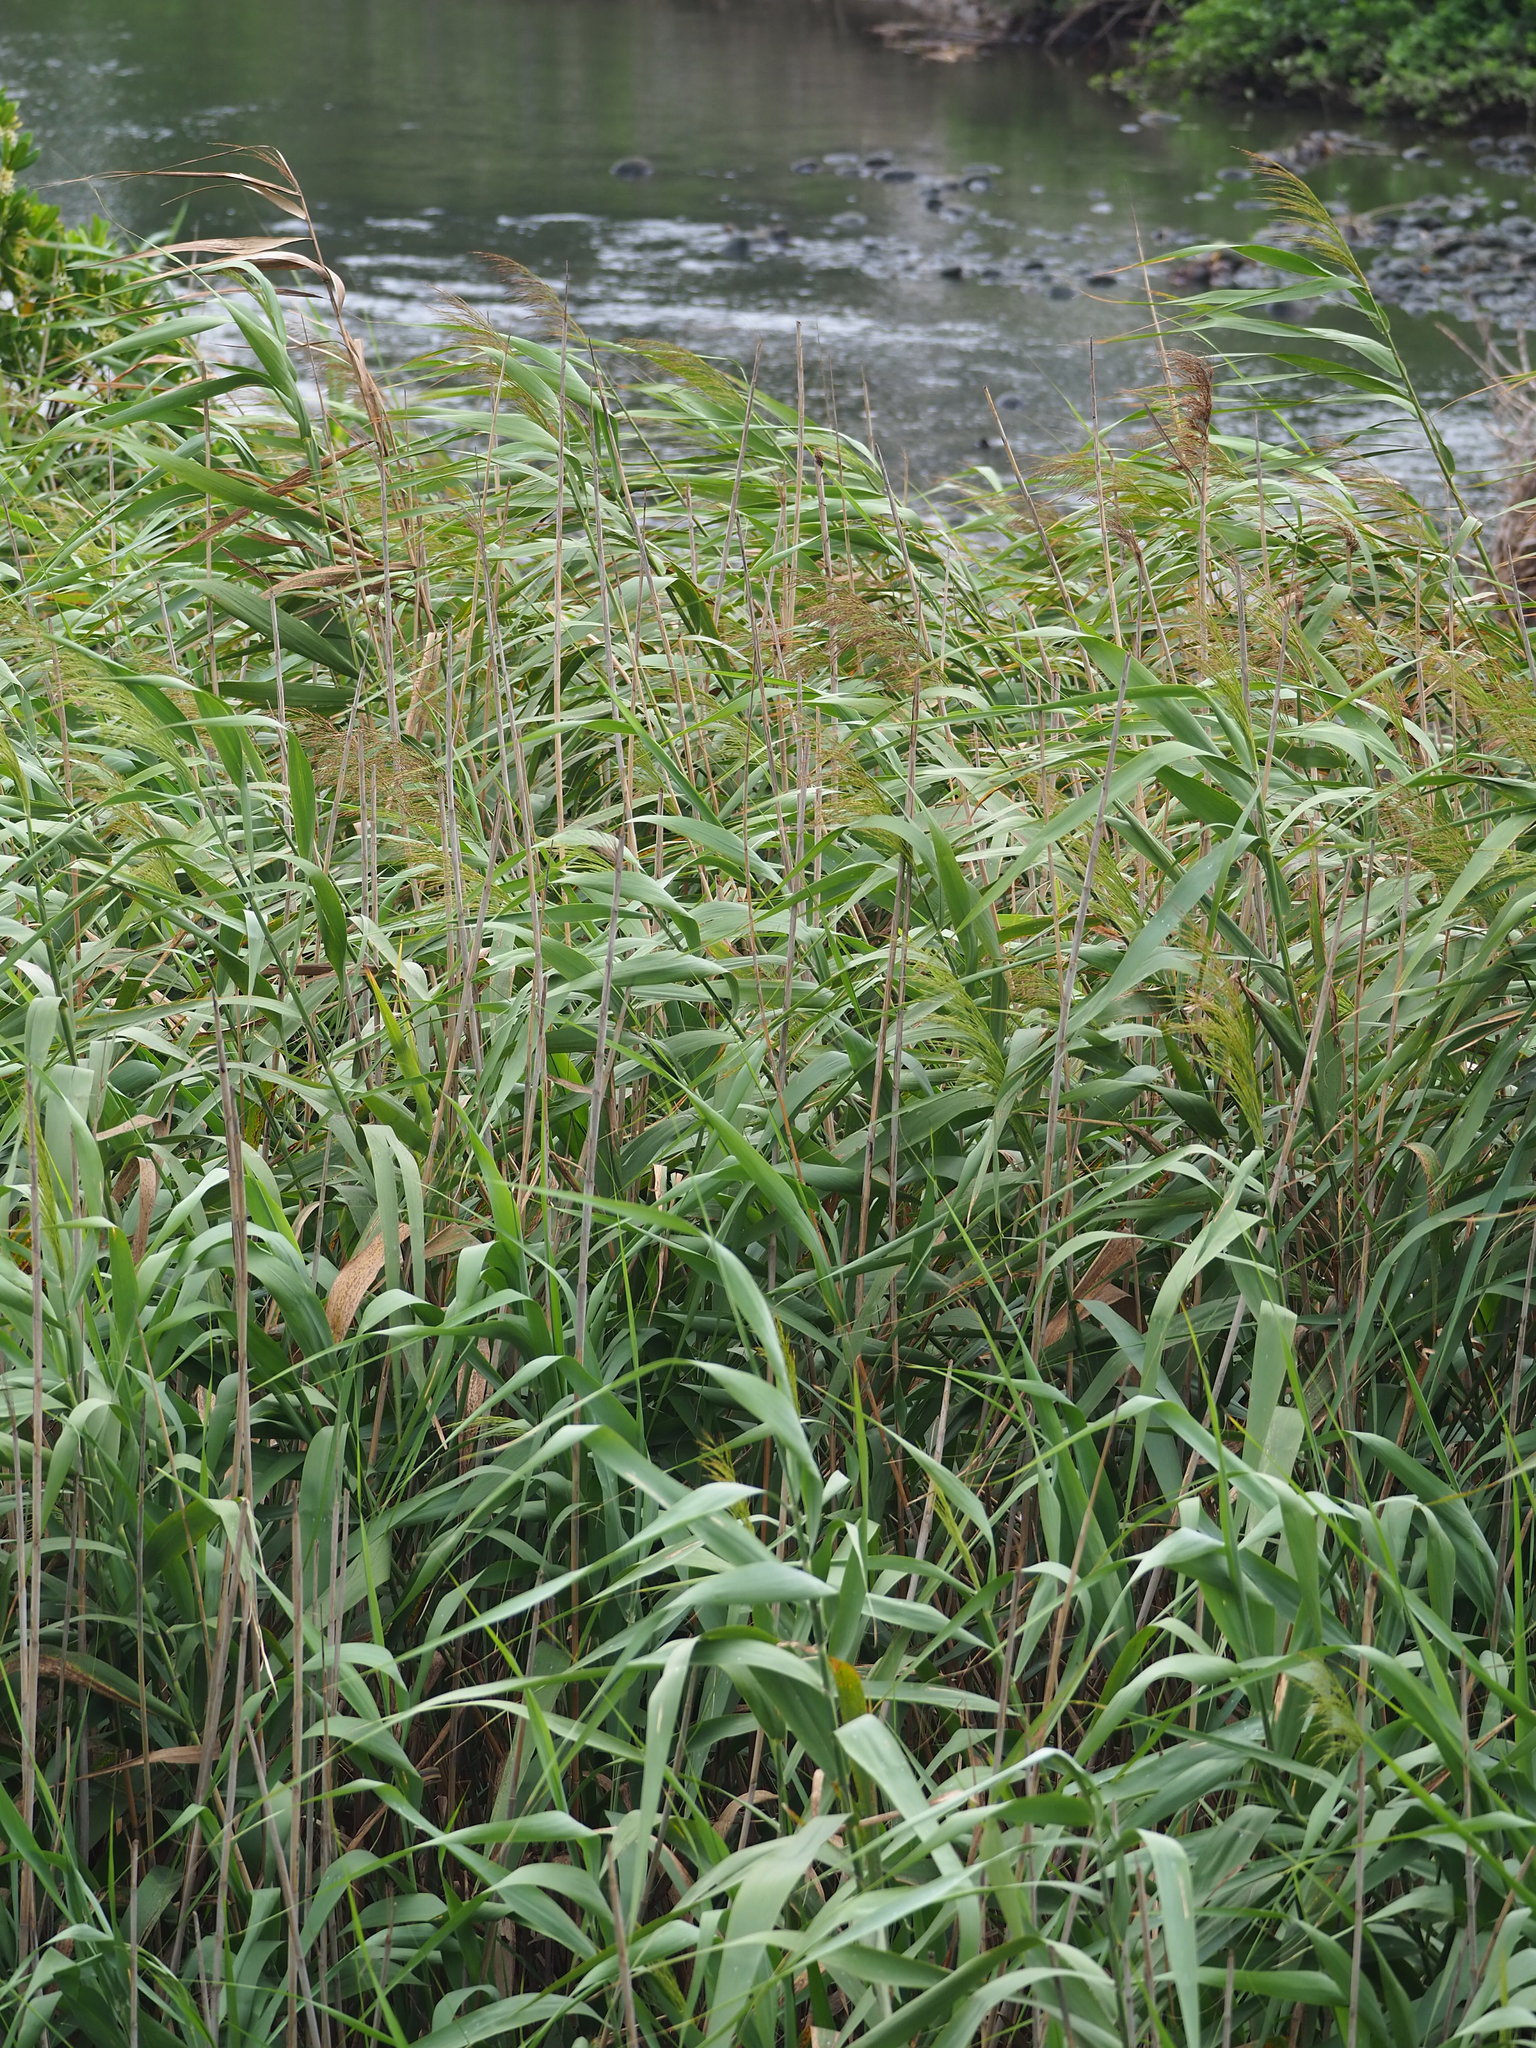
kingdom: Plantae
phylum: Tracheophyta
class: Liliopsida
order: Poales
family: Poaceae
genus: Phragmites
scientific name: Phragmites australis
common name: Common reed
